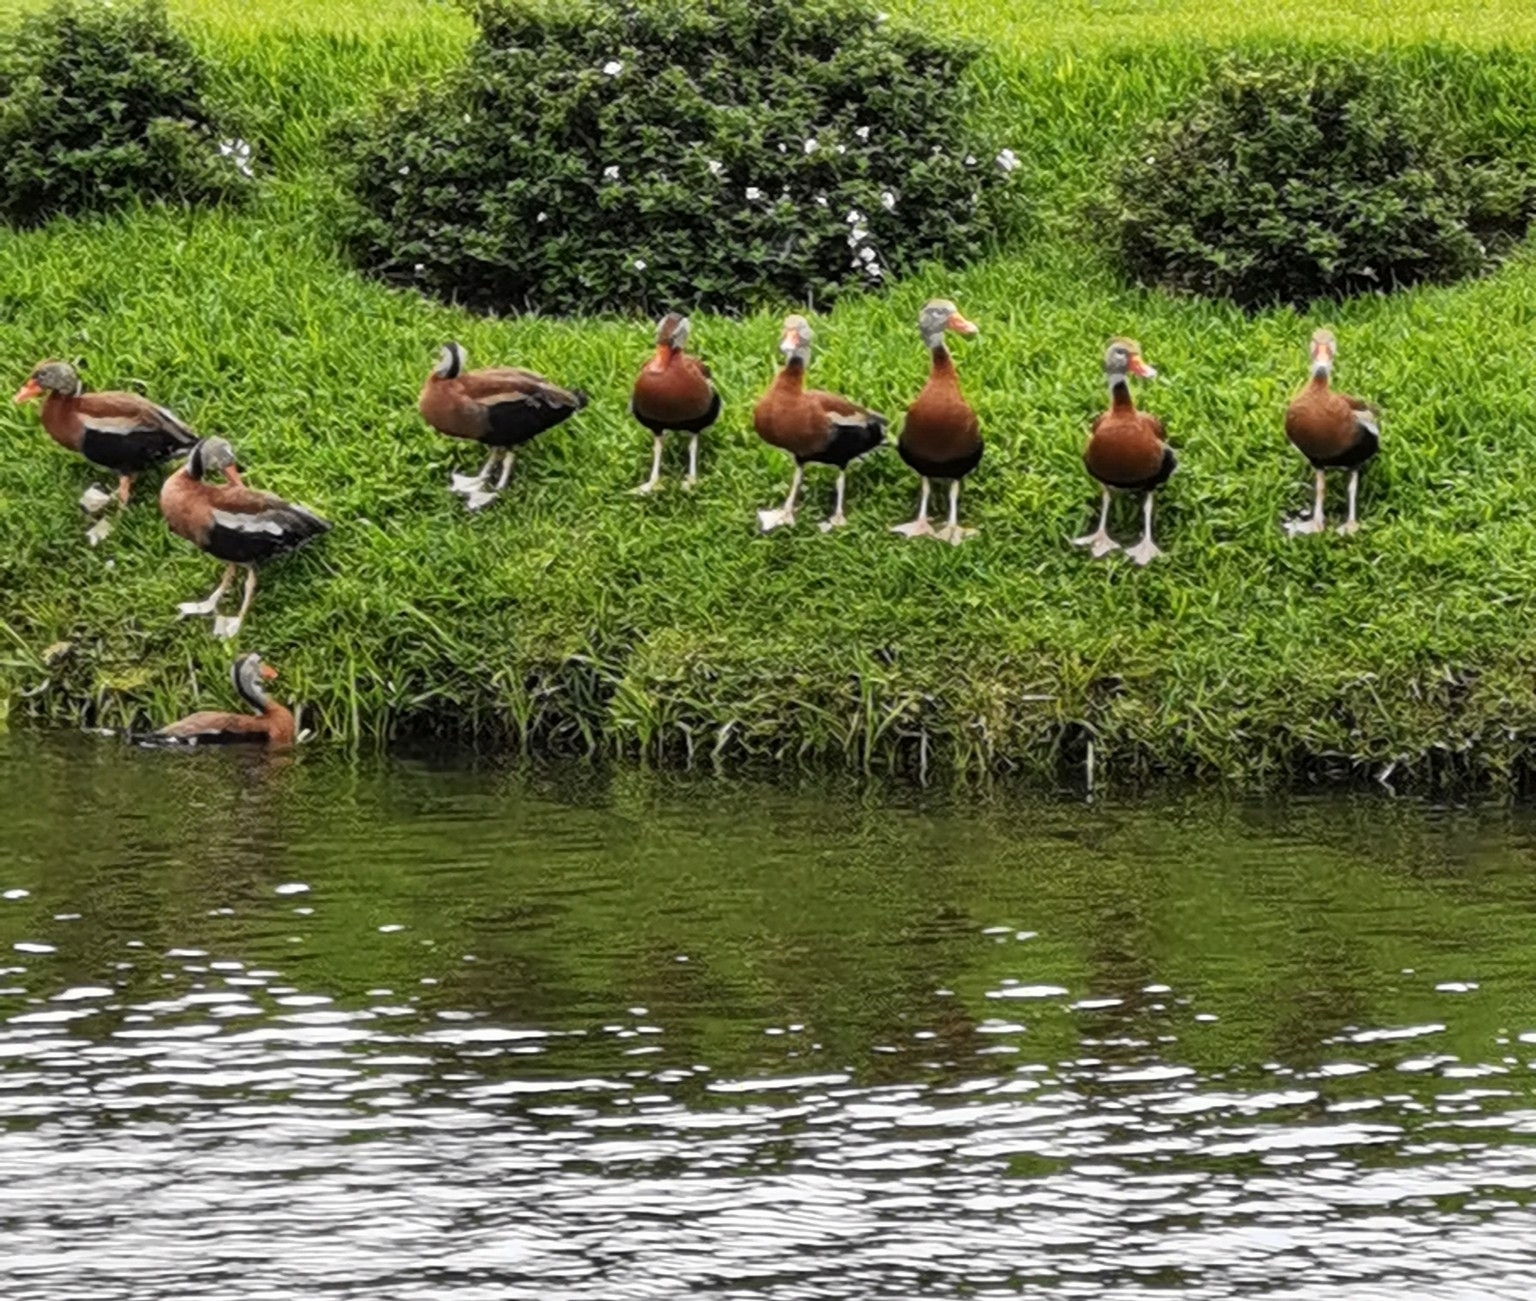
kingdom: Animalia
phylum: Chordata
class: Aves
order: Anseriformes
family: Anatidae
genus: Dendrocygna
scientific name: Dendrocygna autumnalis
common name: Black-bellied whistling duck
